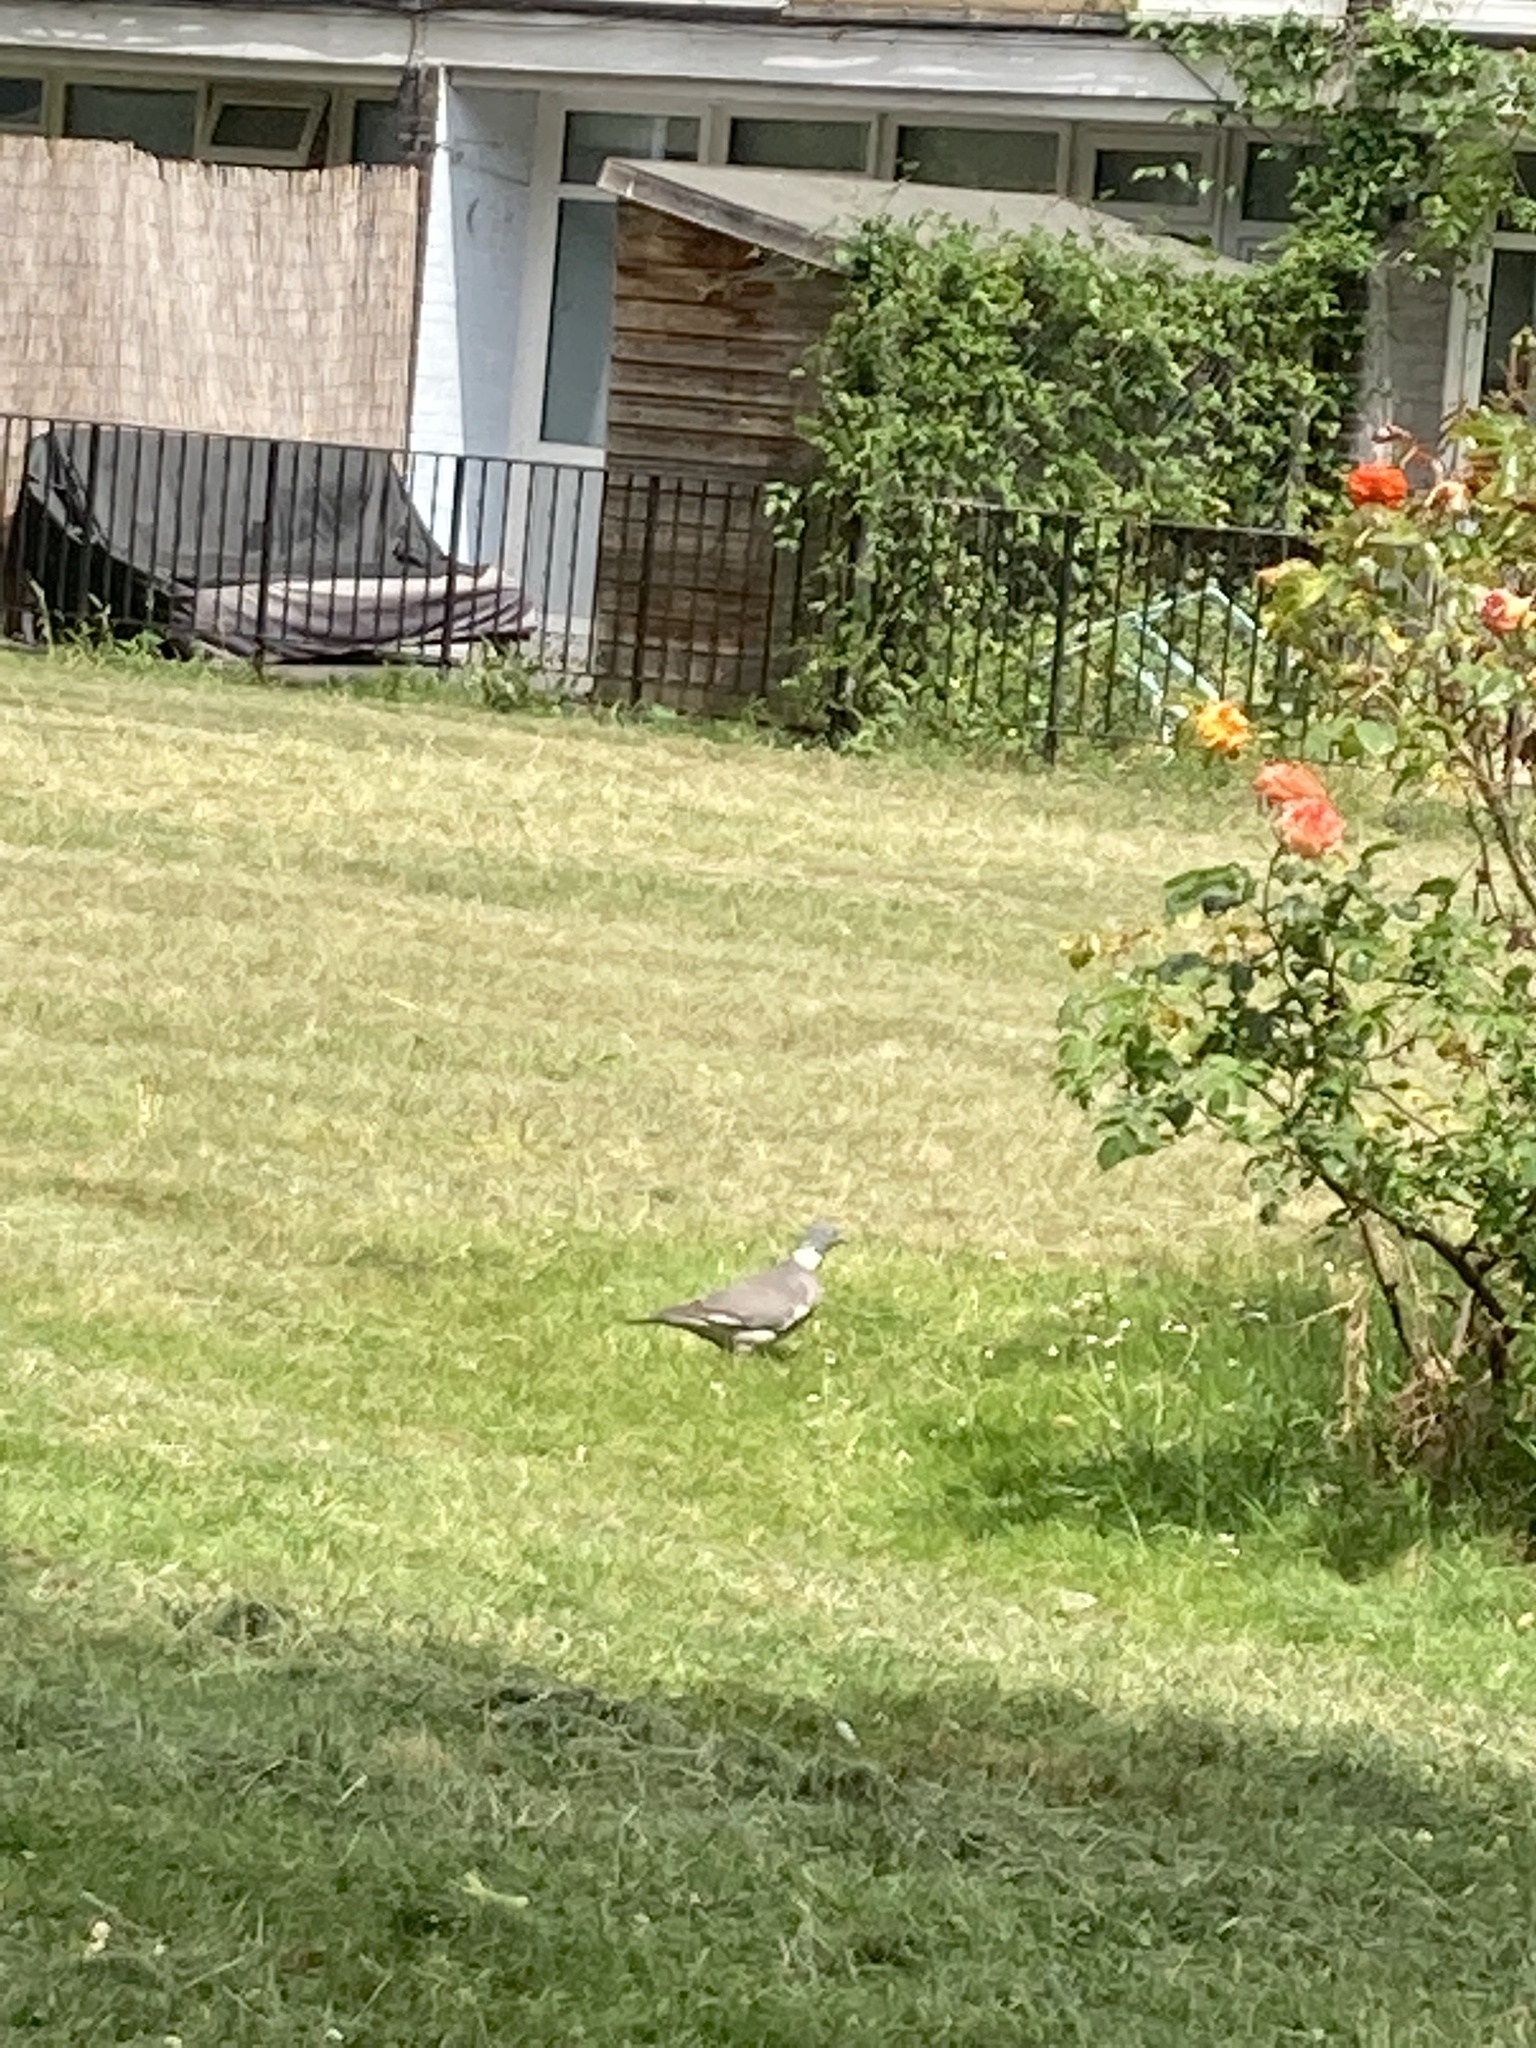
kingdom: Animalia
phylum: Chordata
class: Aves
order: Columbiformes
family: Columbidae
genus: Columba
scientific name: Columba palumbus
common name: Common wood pigeon
